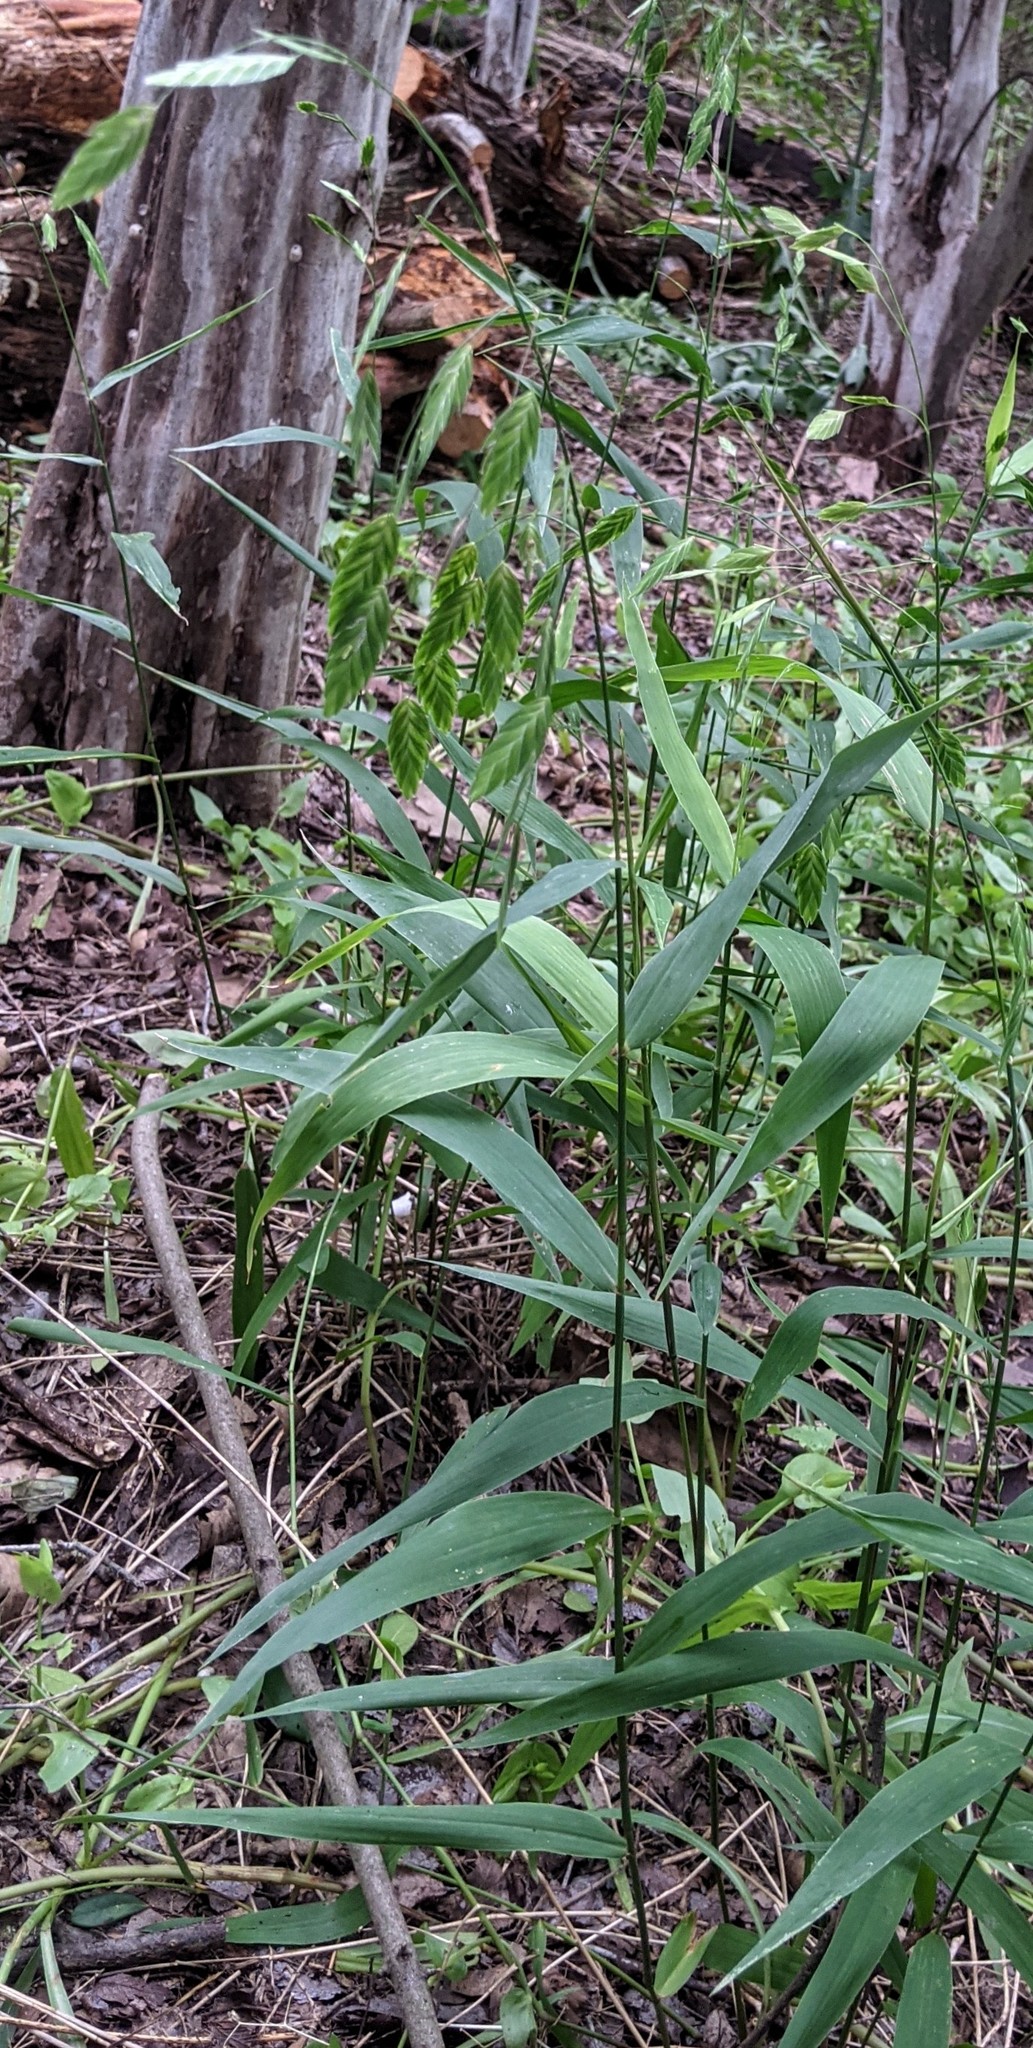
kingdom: Plantae
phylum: Tracheophyta
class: Liliopsida
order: Poales
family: Poaceae
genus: Chasmanthium
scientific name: Chasmanthium latifolium
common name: Broad-leaved chasmanthium
